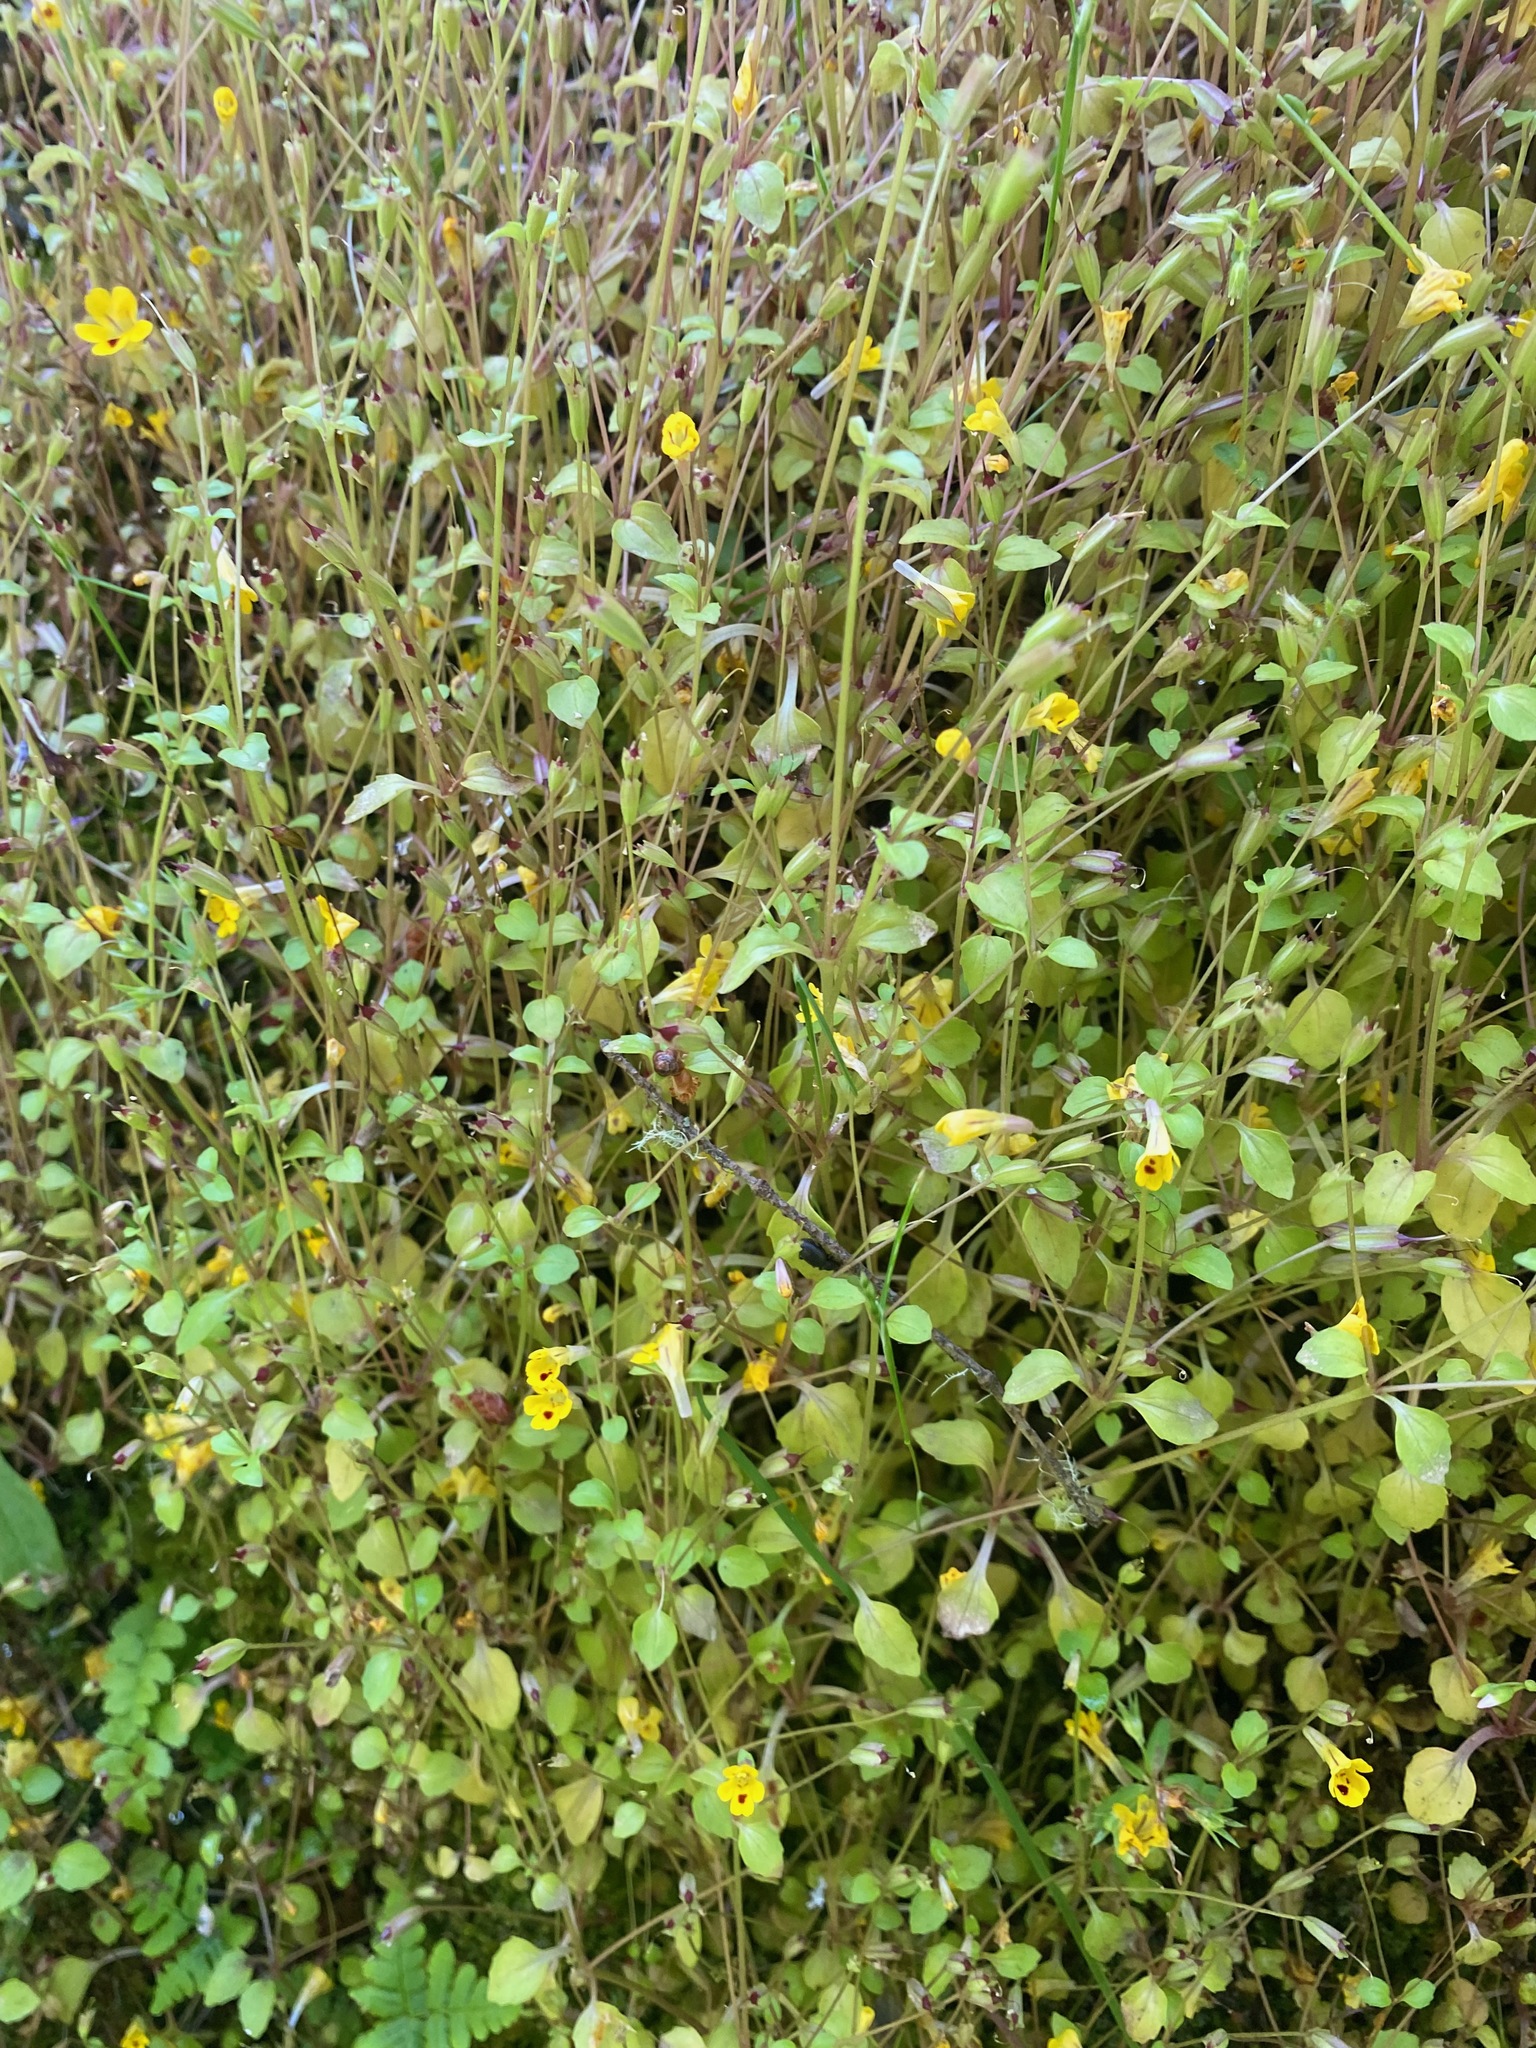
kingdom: Plantae
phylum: Tracheophyta
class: Magnoliopsida
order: Lamiales
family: Phrymaceae
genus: Erythranthe
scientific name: Erythranthe alsinoides
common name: Chickweed monkeyflower
